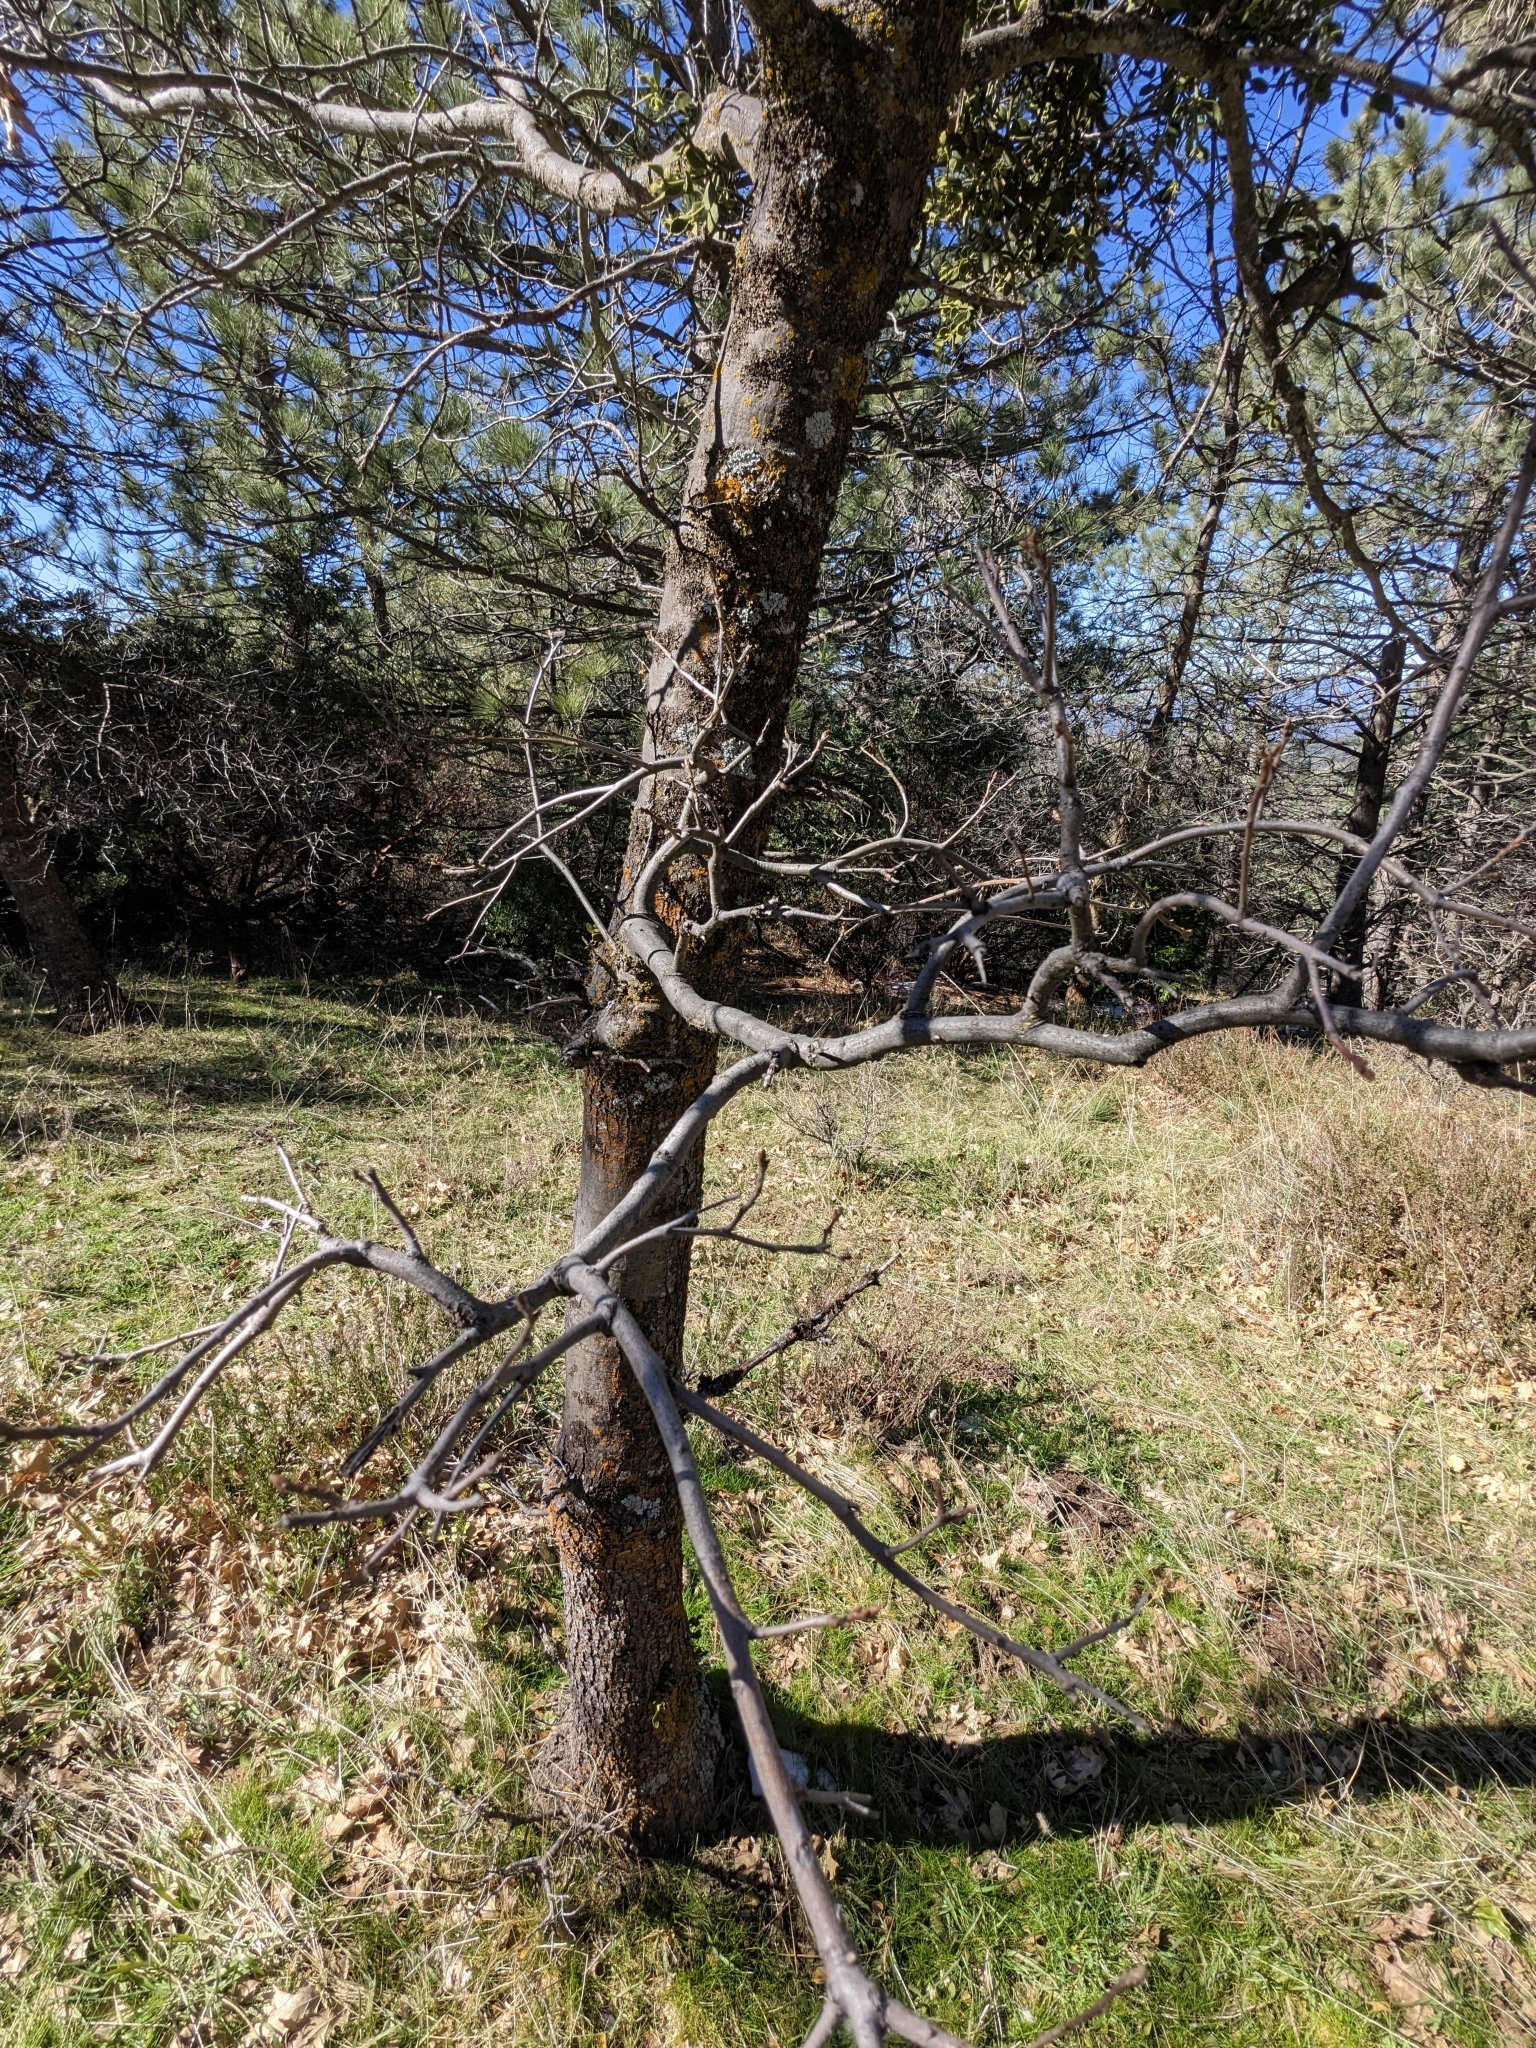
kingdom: Plantae
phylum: Tracheophyta
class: Magnoliopsida
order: Fagales
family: Fagaceae
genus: Quercus
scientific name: Quercus kelloggii
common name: California black oak
